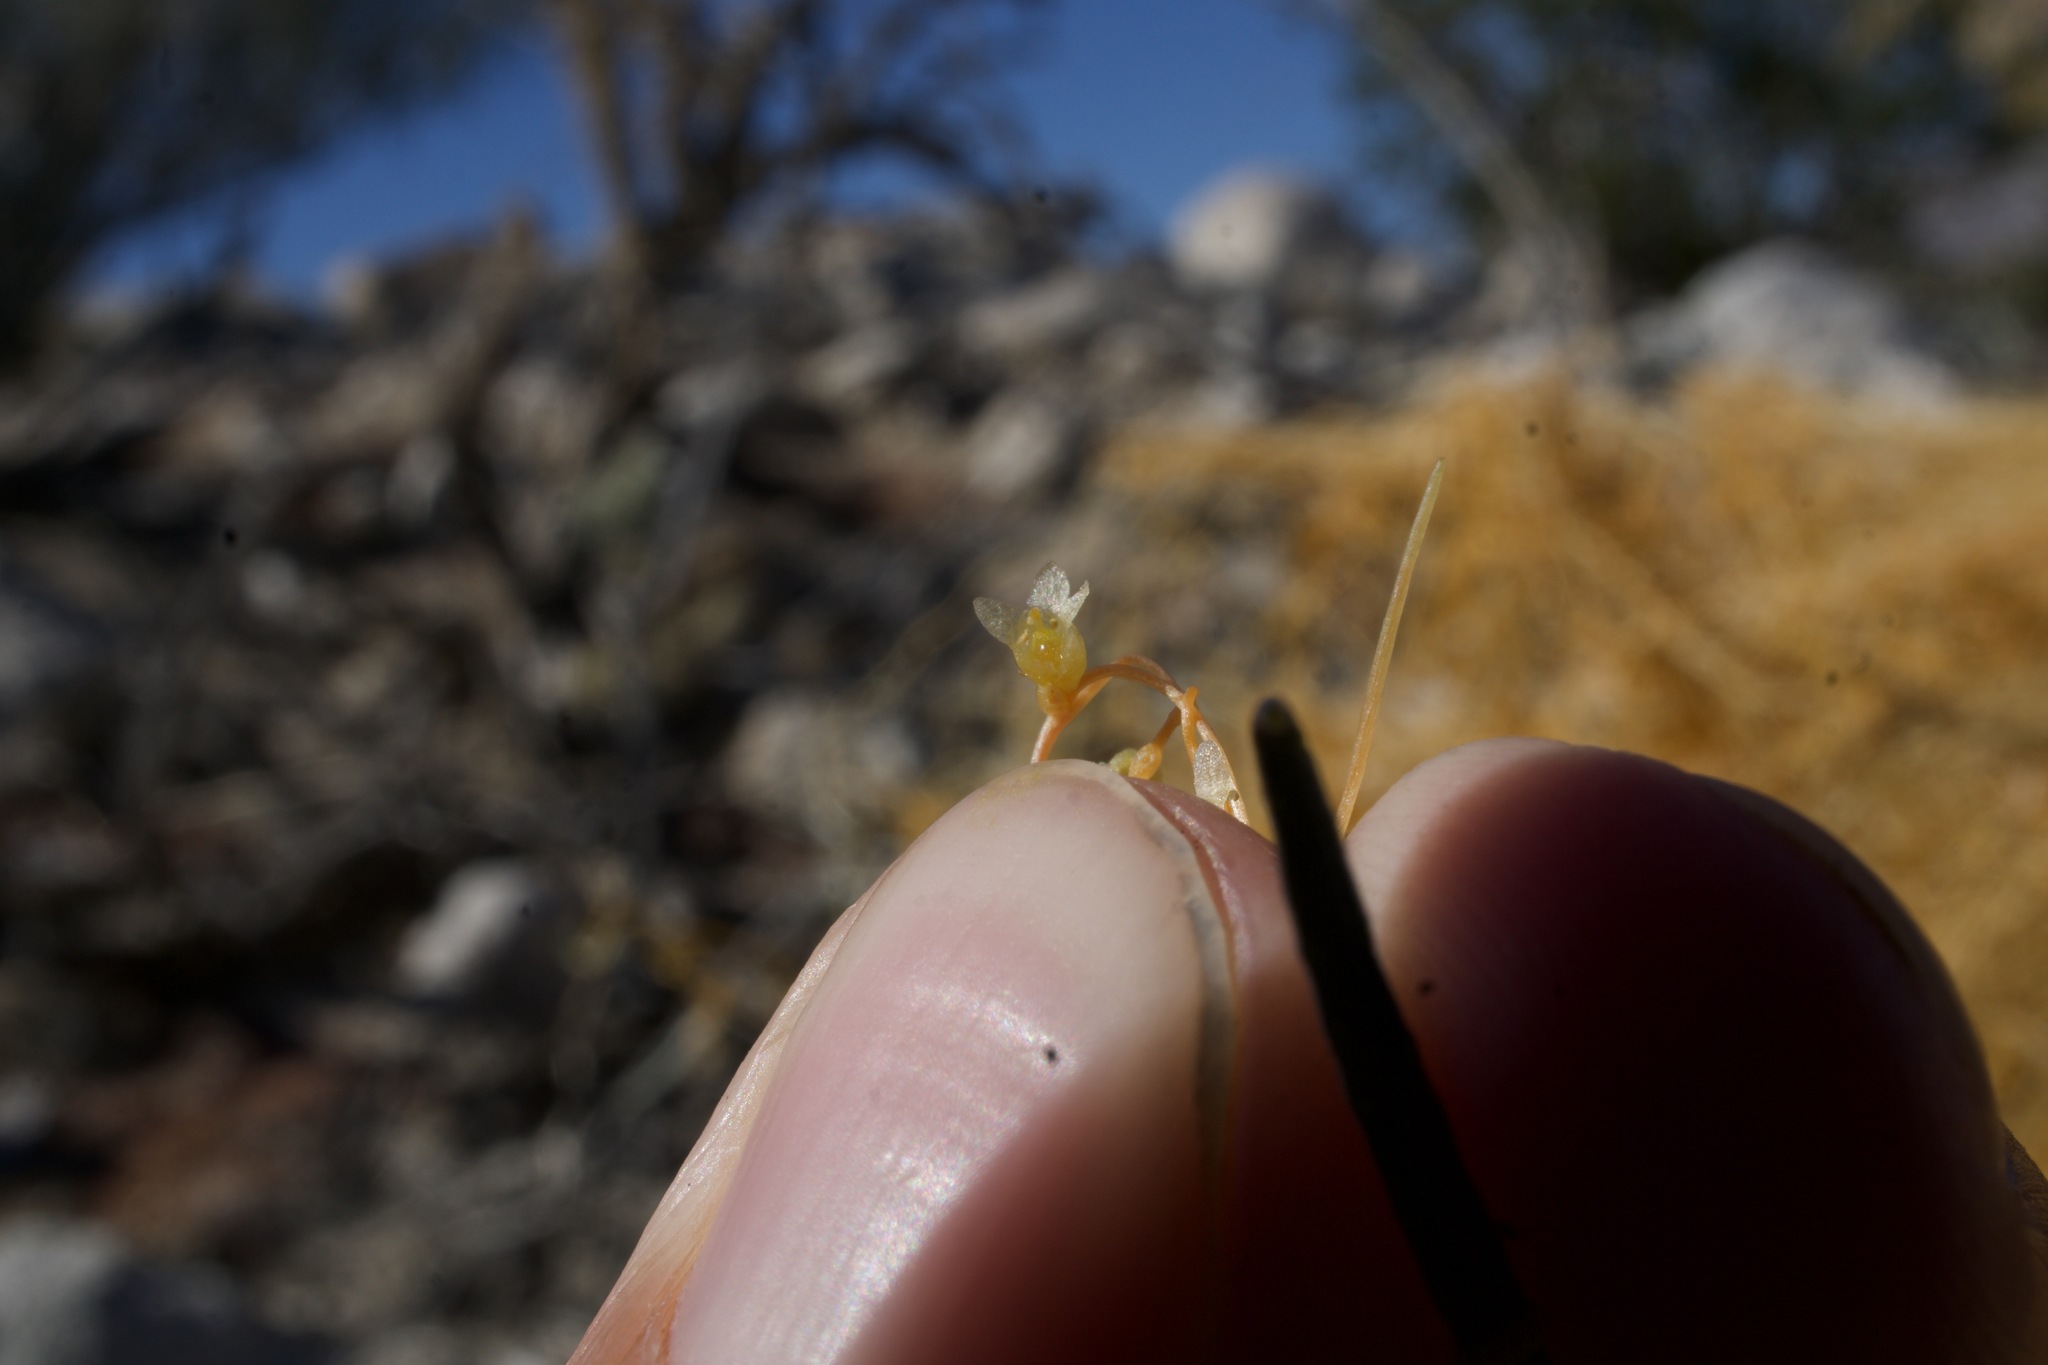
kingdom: Plantae
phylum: Tracheophyta
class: Magnoliopsida
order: Solanales
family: Convolvulaceae
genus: Cuscuta
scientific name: Cuscuta psorothamnensis
